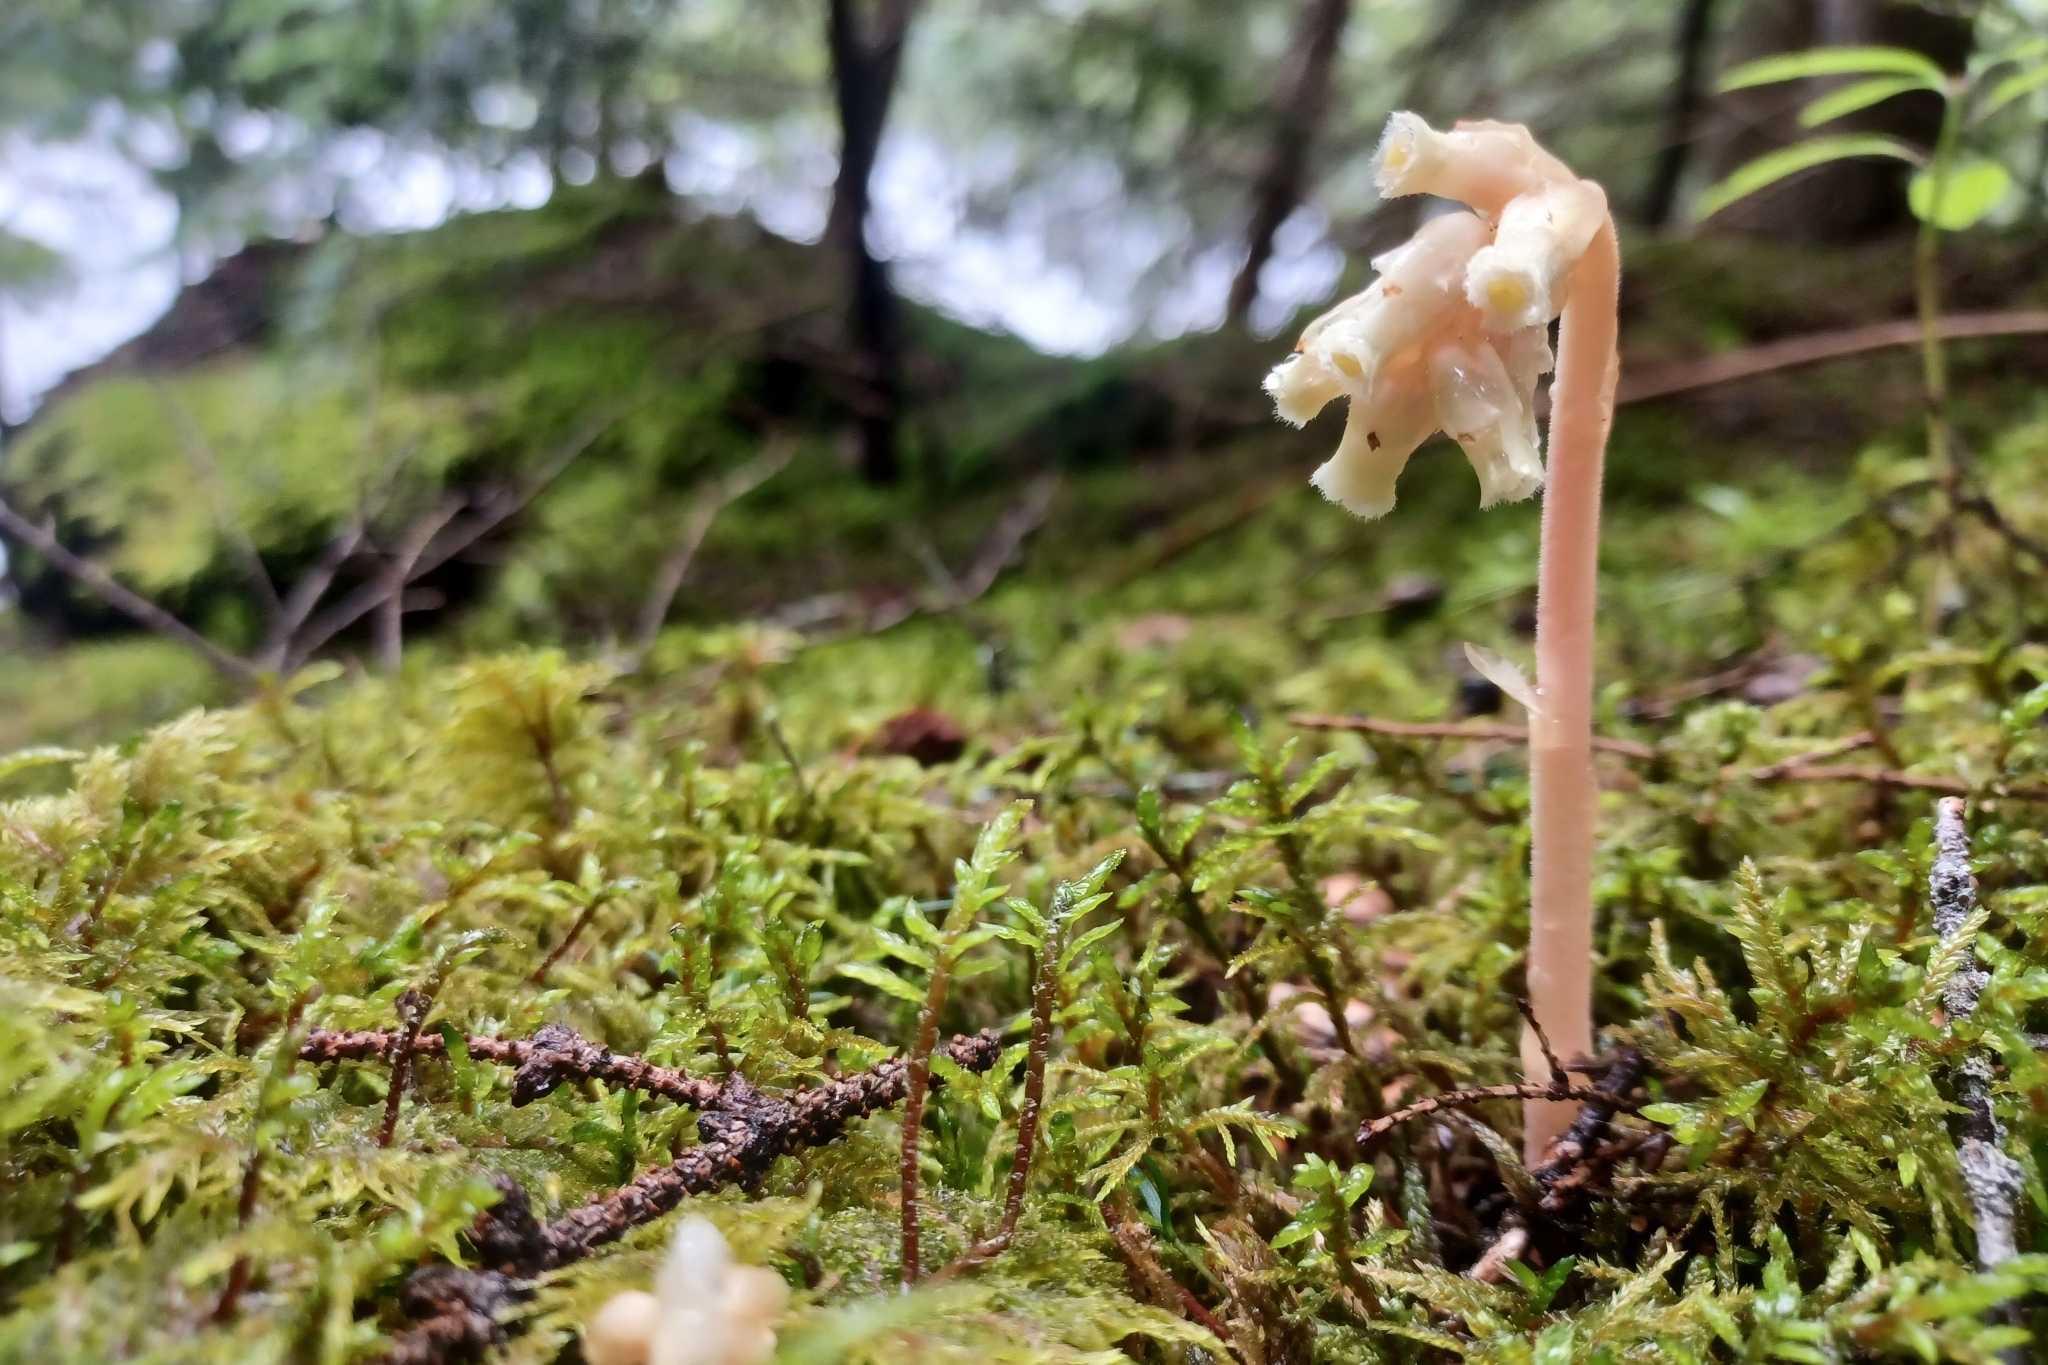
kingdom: Plantae
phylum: Tracheophyta
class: Magnoliopsida
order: Ericales
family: Ericaceae
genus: Hypopitys
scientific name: Hypopitys monotropa
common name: Yellow bird's-nest
